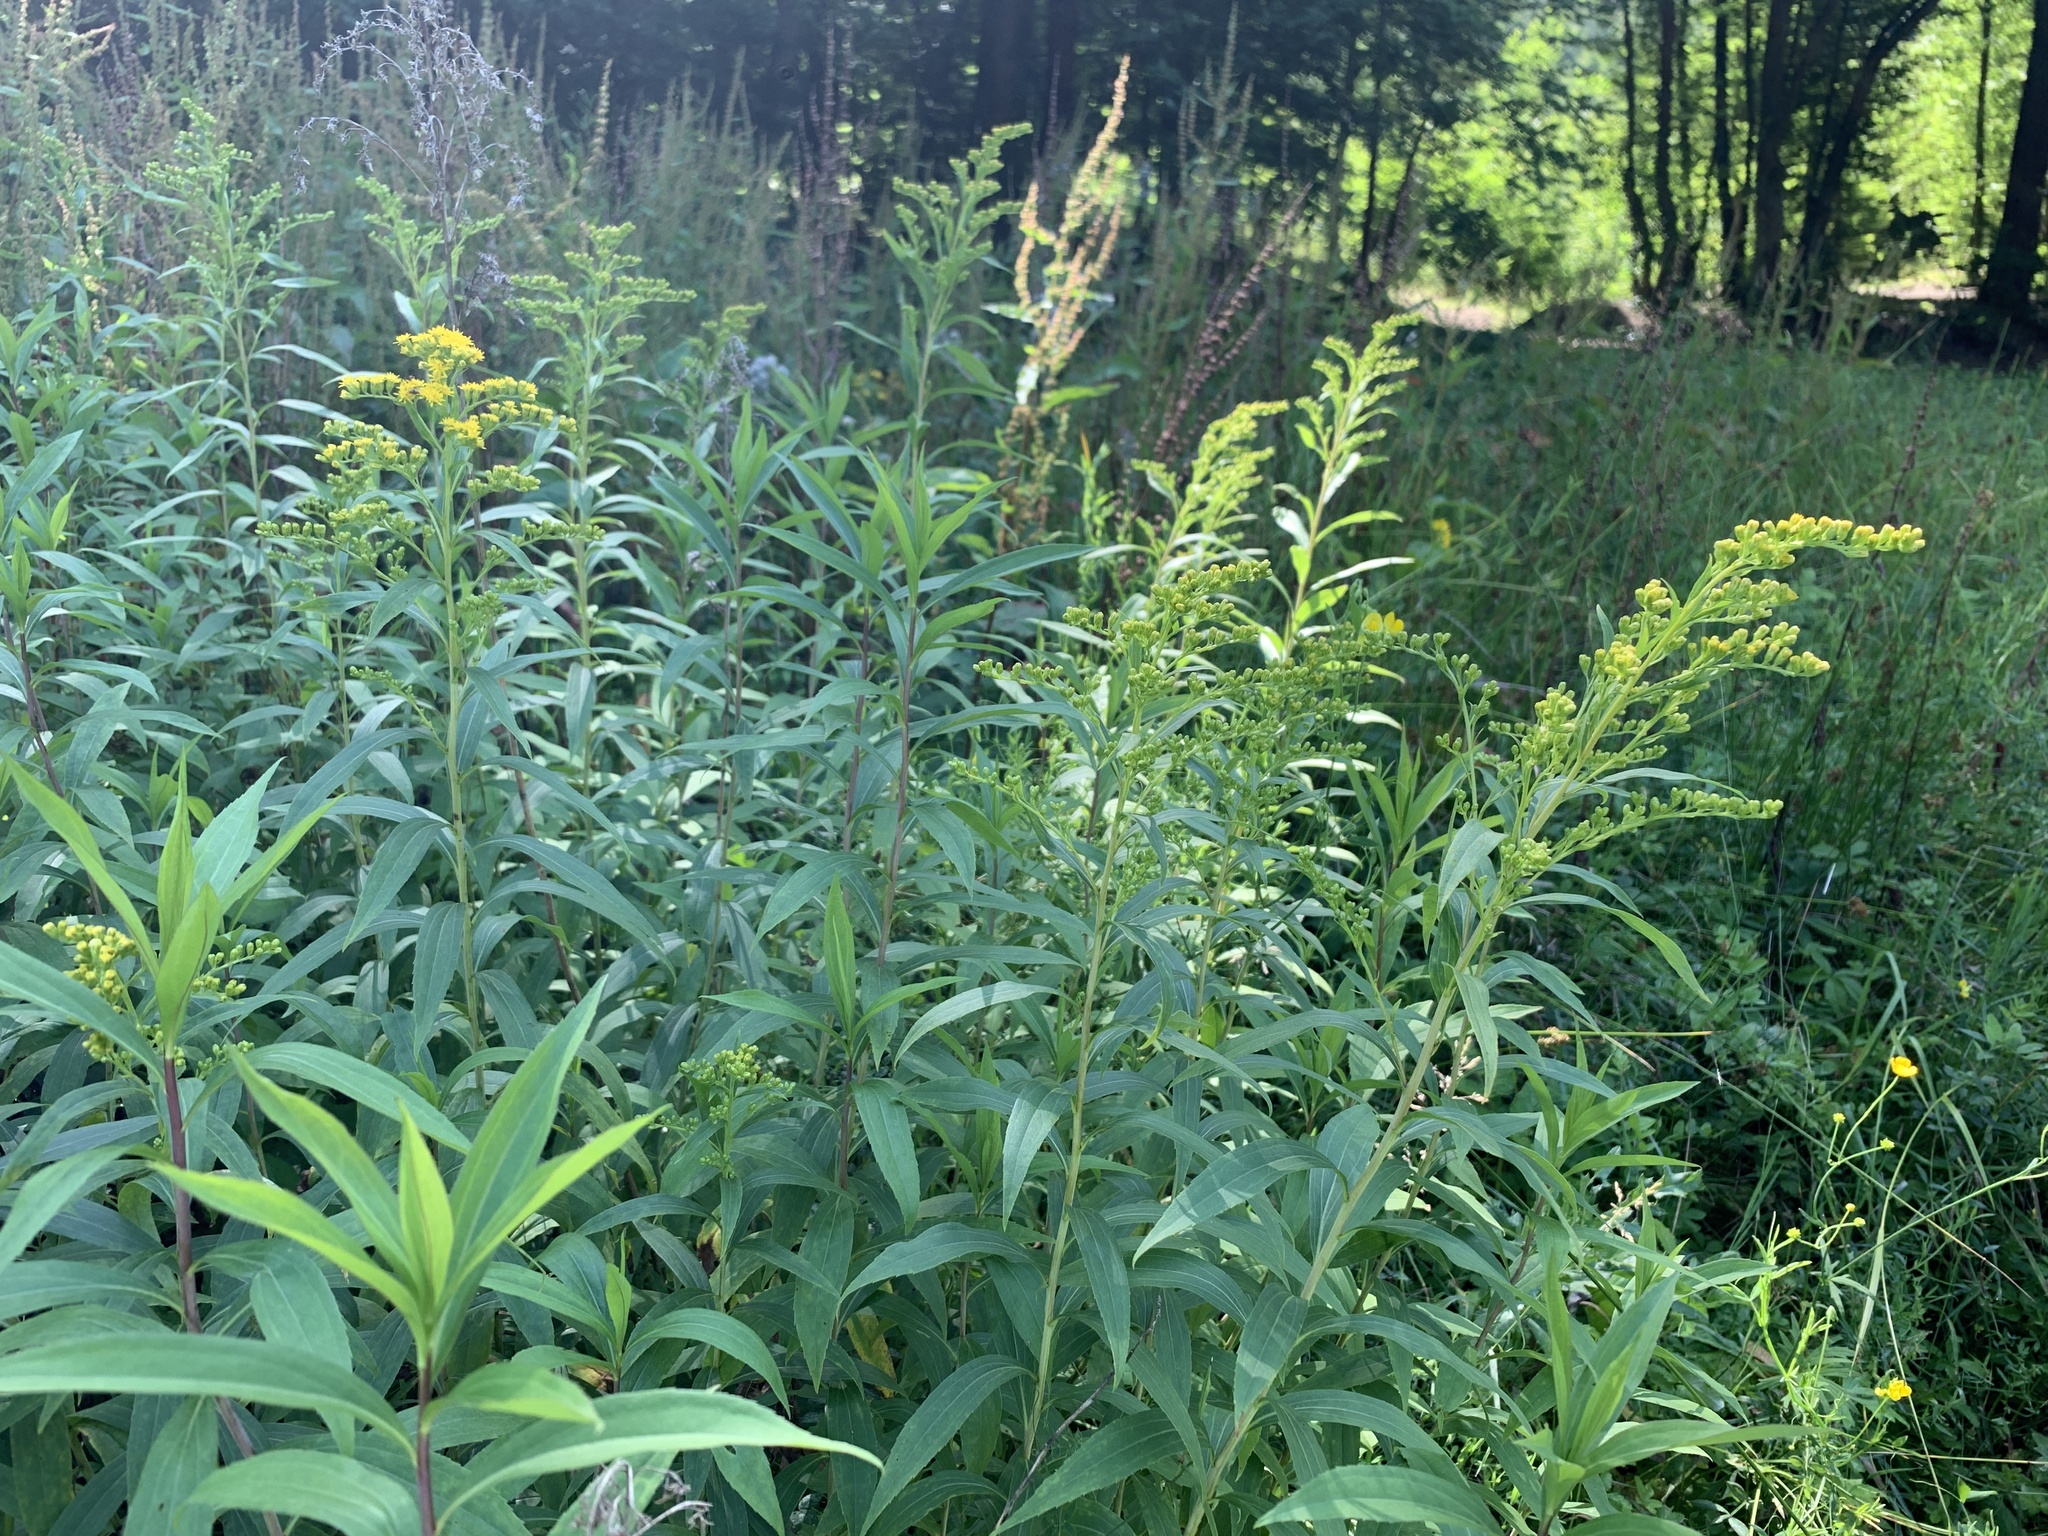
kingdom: Plantae
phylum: Tracheophyta
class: Magnoliopsida
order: Asterales
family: Asteraceae
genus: Solidago
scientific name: Solidago gigantea
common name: Giant goldenrod
